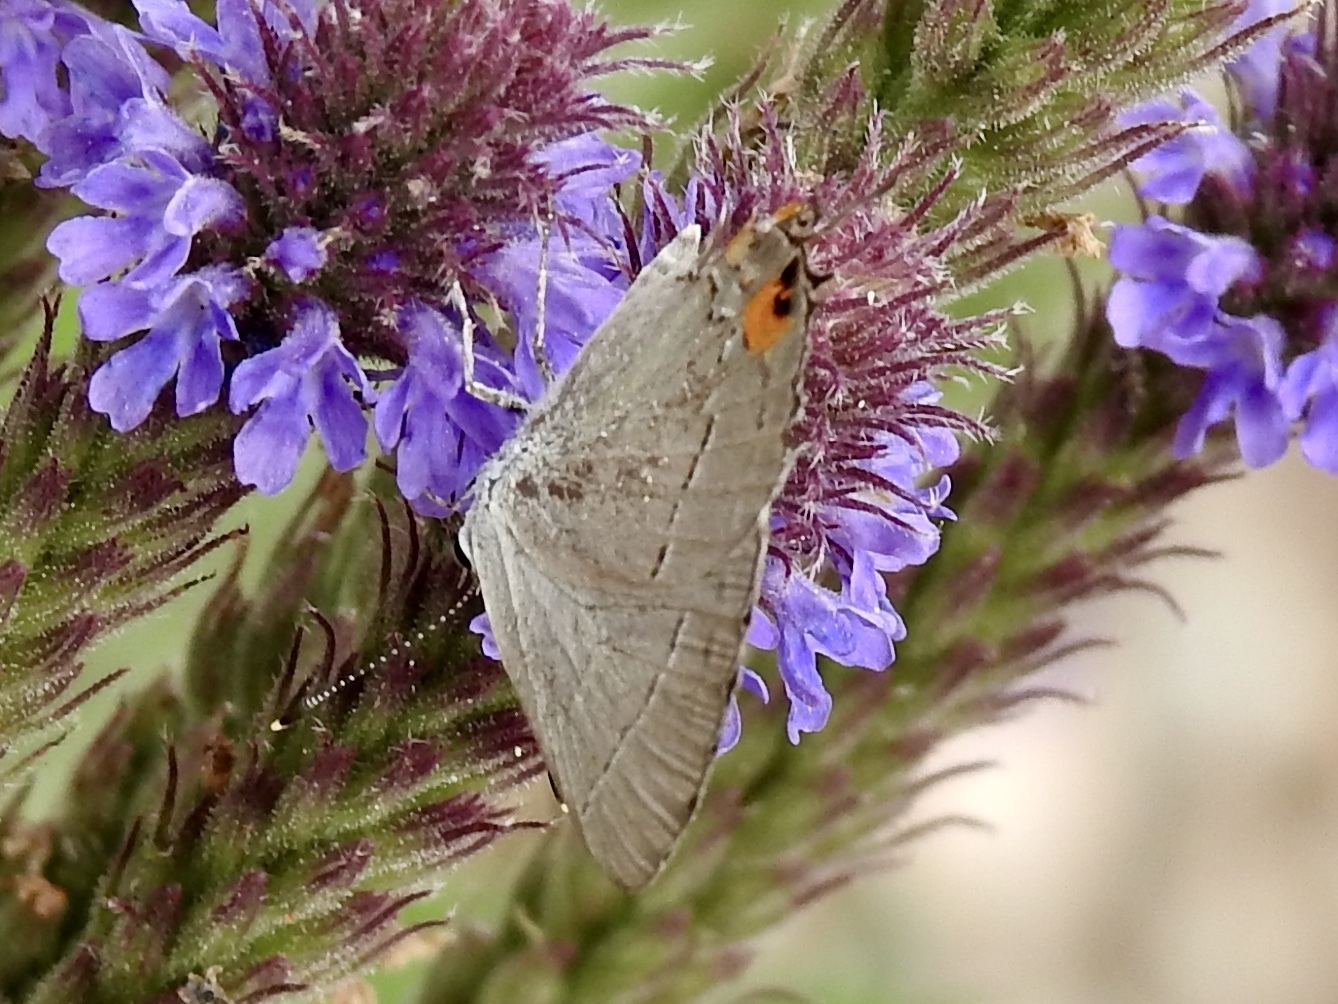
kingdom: Animalia
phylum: Arthropoda
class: Insecta
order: Lepidoptera
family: Lycaenidae
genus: Strymon
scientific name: Strymon melinus
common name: Gray hairstreak
